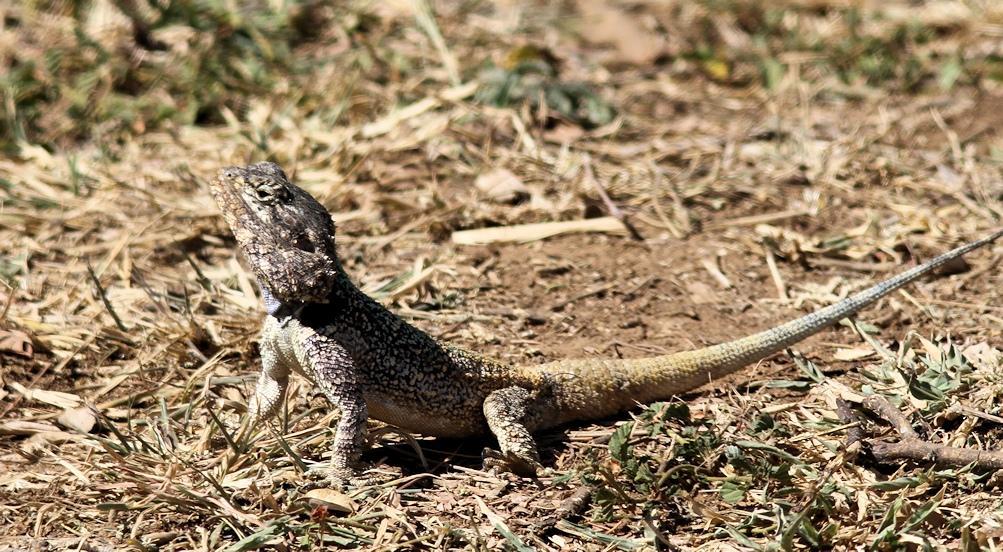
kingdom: Animalia
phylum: Chordata
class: Squamata
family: Agamidae
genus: Acanthocercus
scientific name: Acanthocercus atricollis
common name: Southern tree agama
